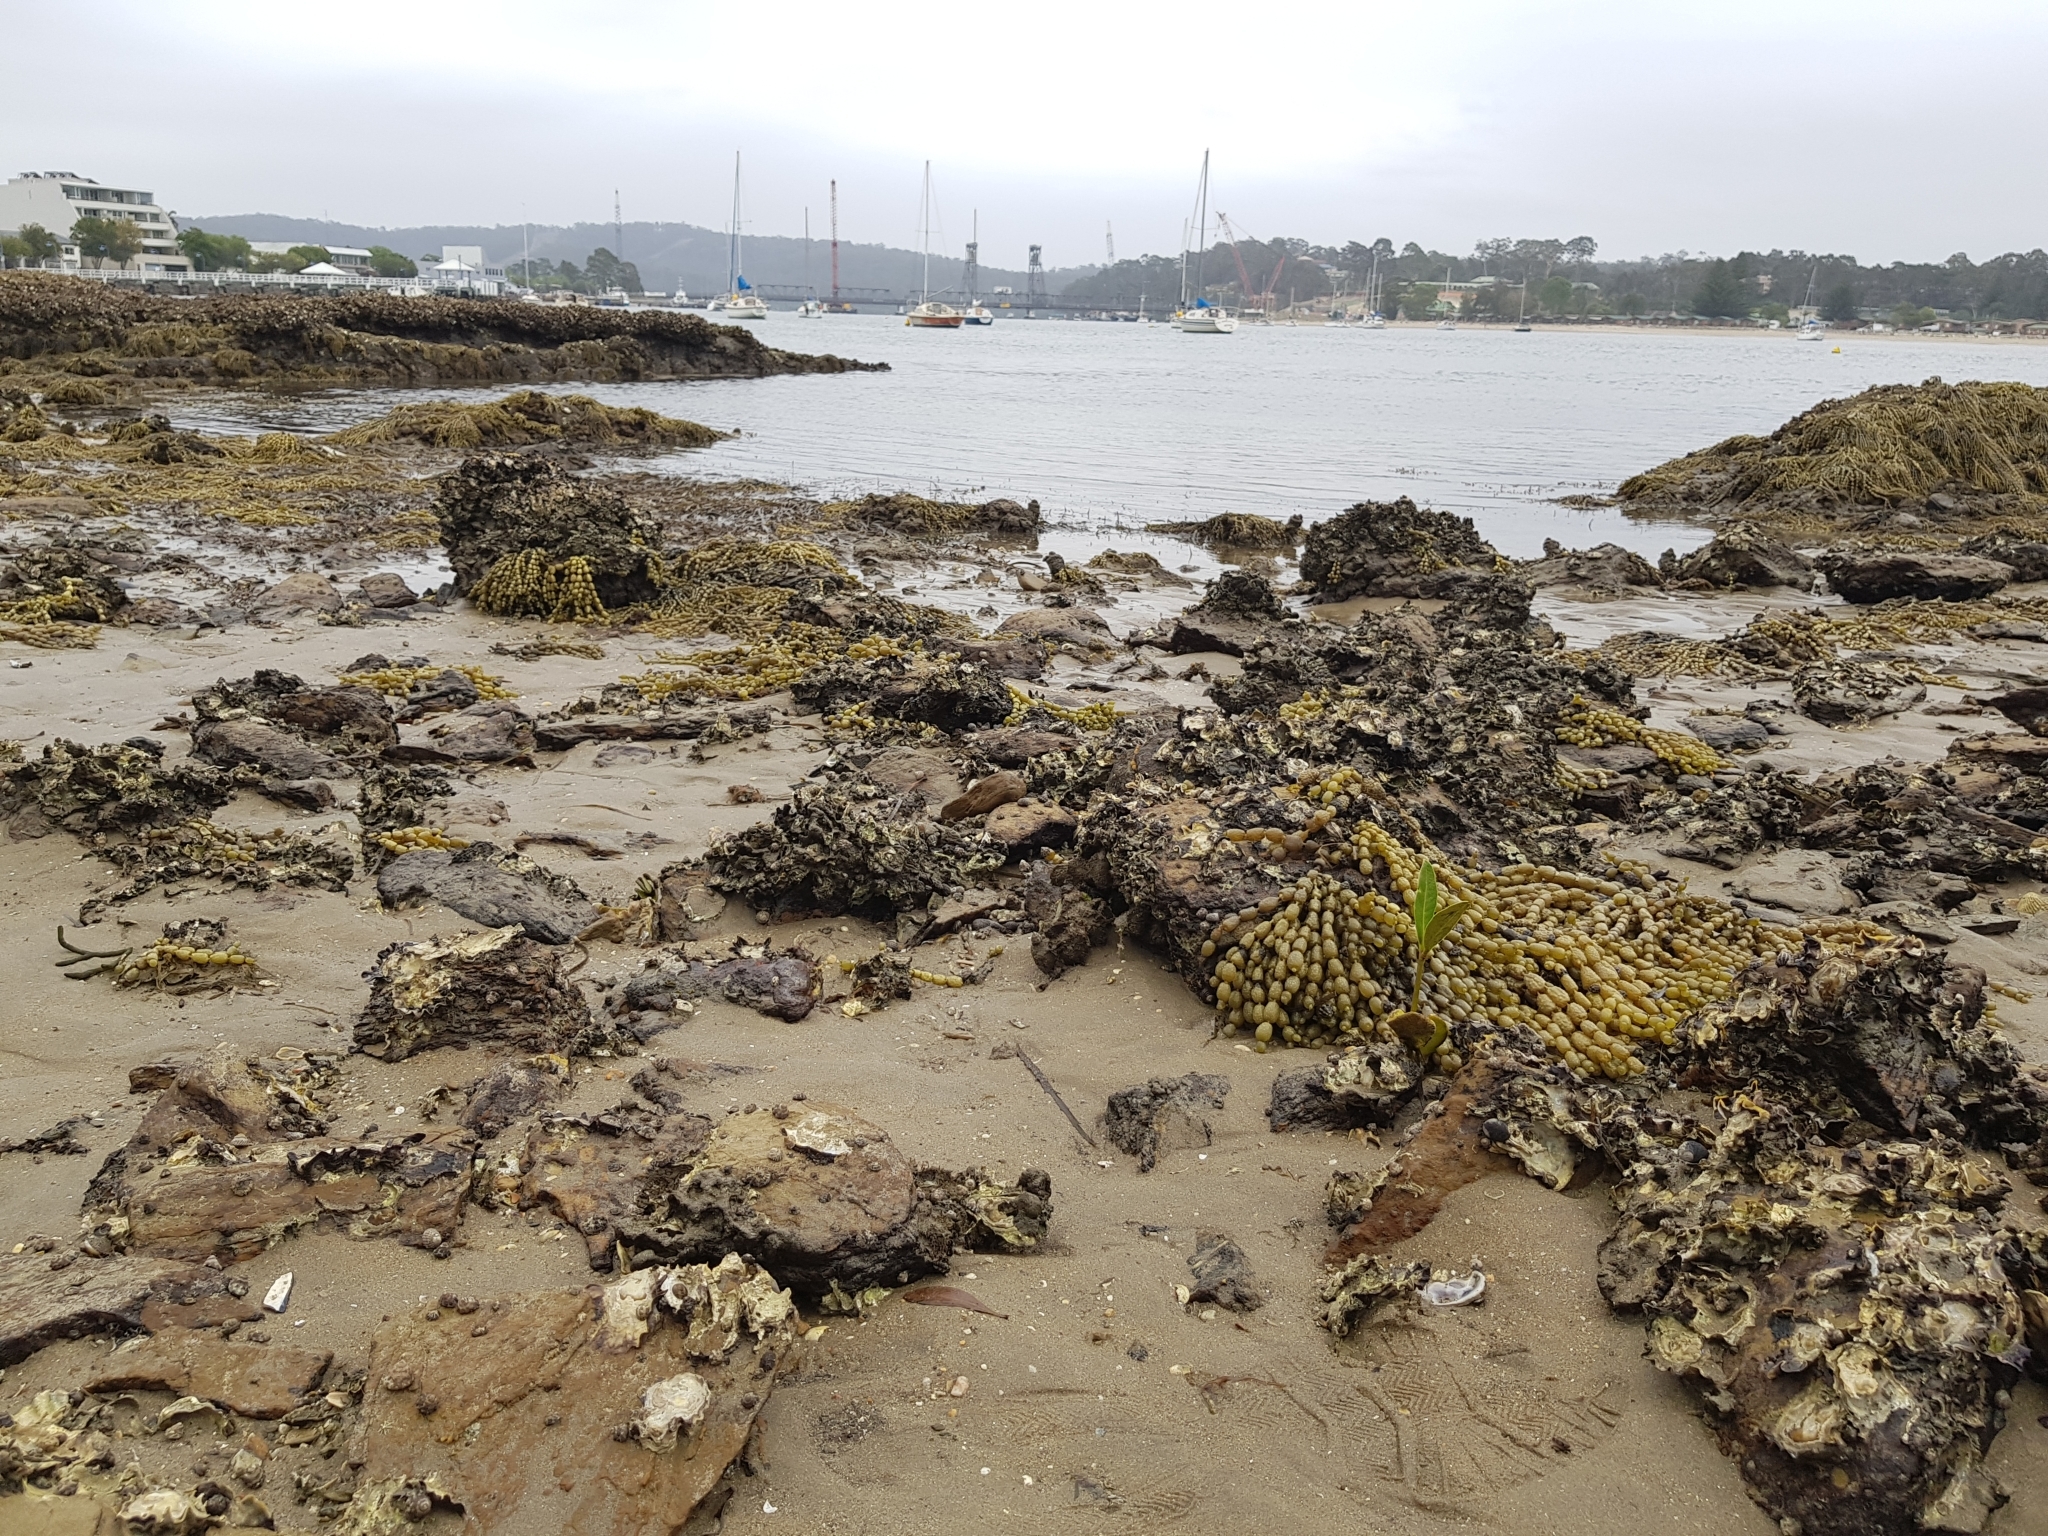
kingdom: Plantae
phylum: Tracheophyta
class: Magnoliopsida
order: Lamiales
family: Acanthaceae
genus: Avicennia
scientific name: Avicennia marina
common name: Gray mangrove
